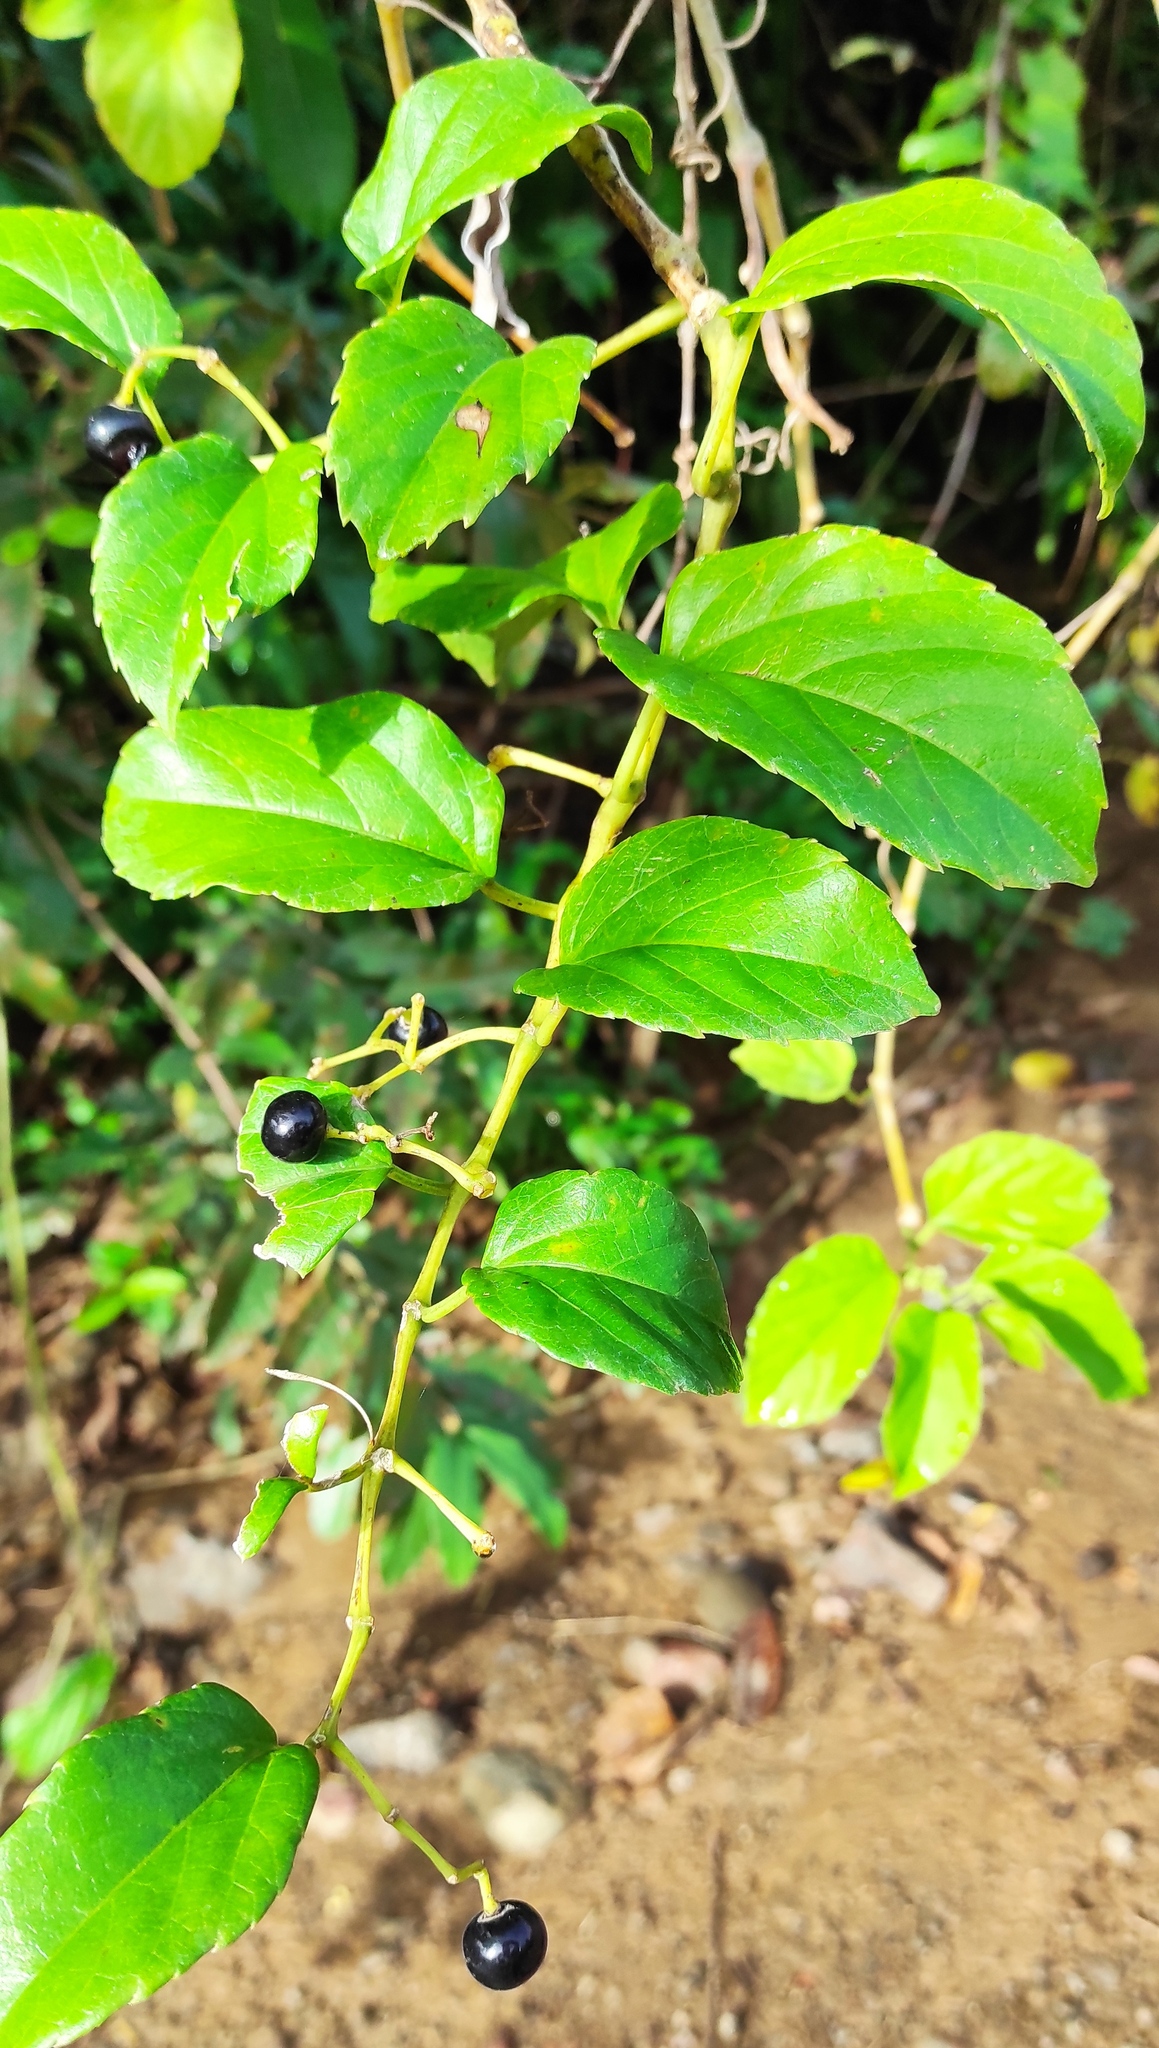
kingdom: Plantae
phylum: Tracheophyta
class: Magnoliopsida
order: Vitales
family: Vitaceae
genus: Cissus
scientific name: Cissus verticillata
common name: Princess vine
